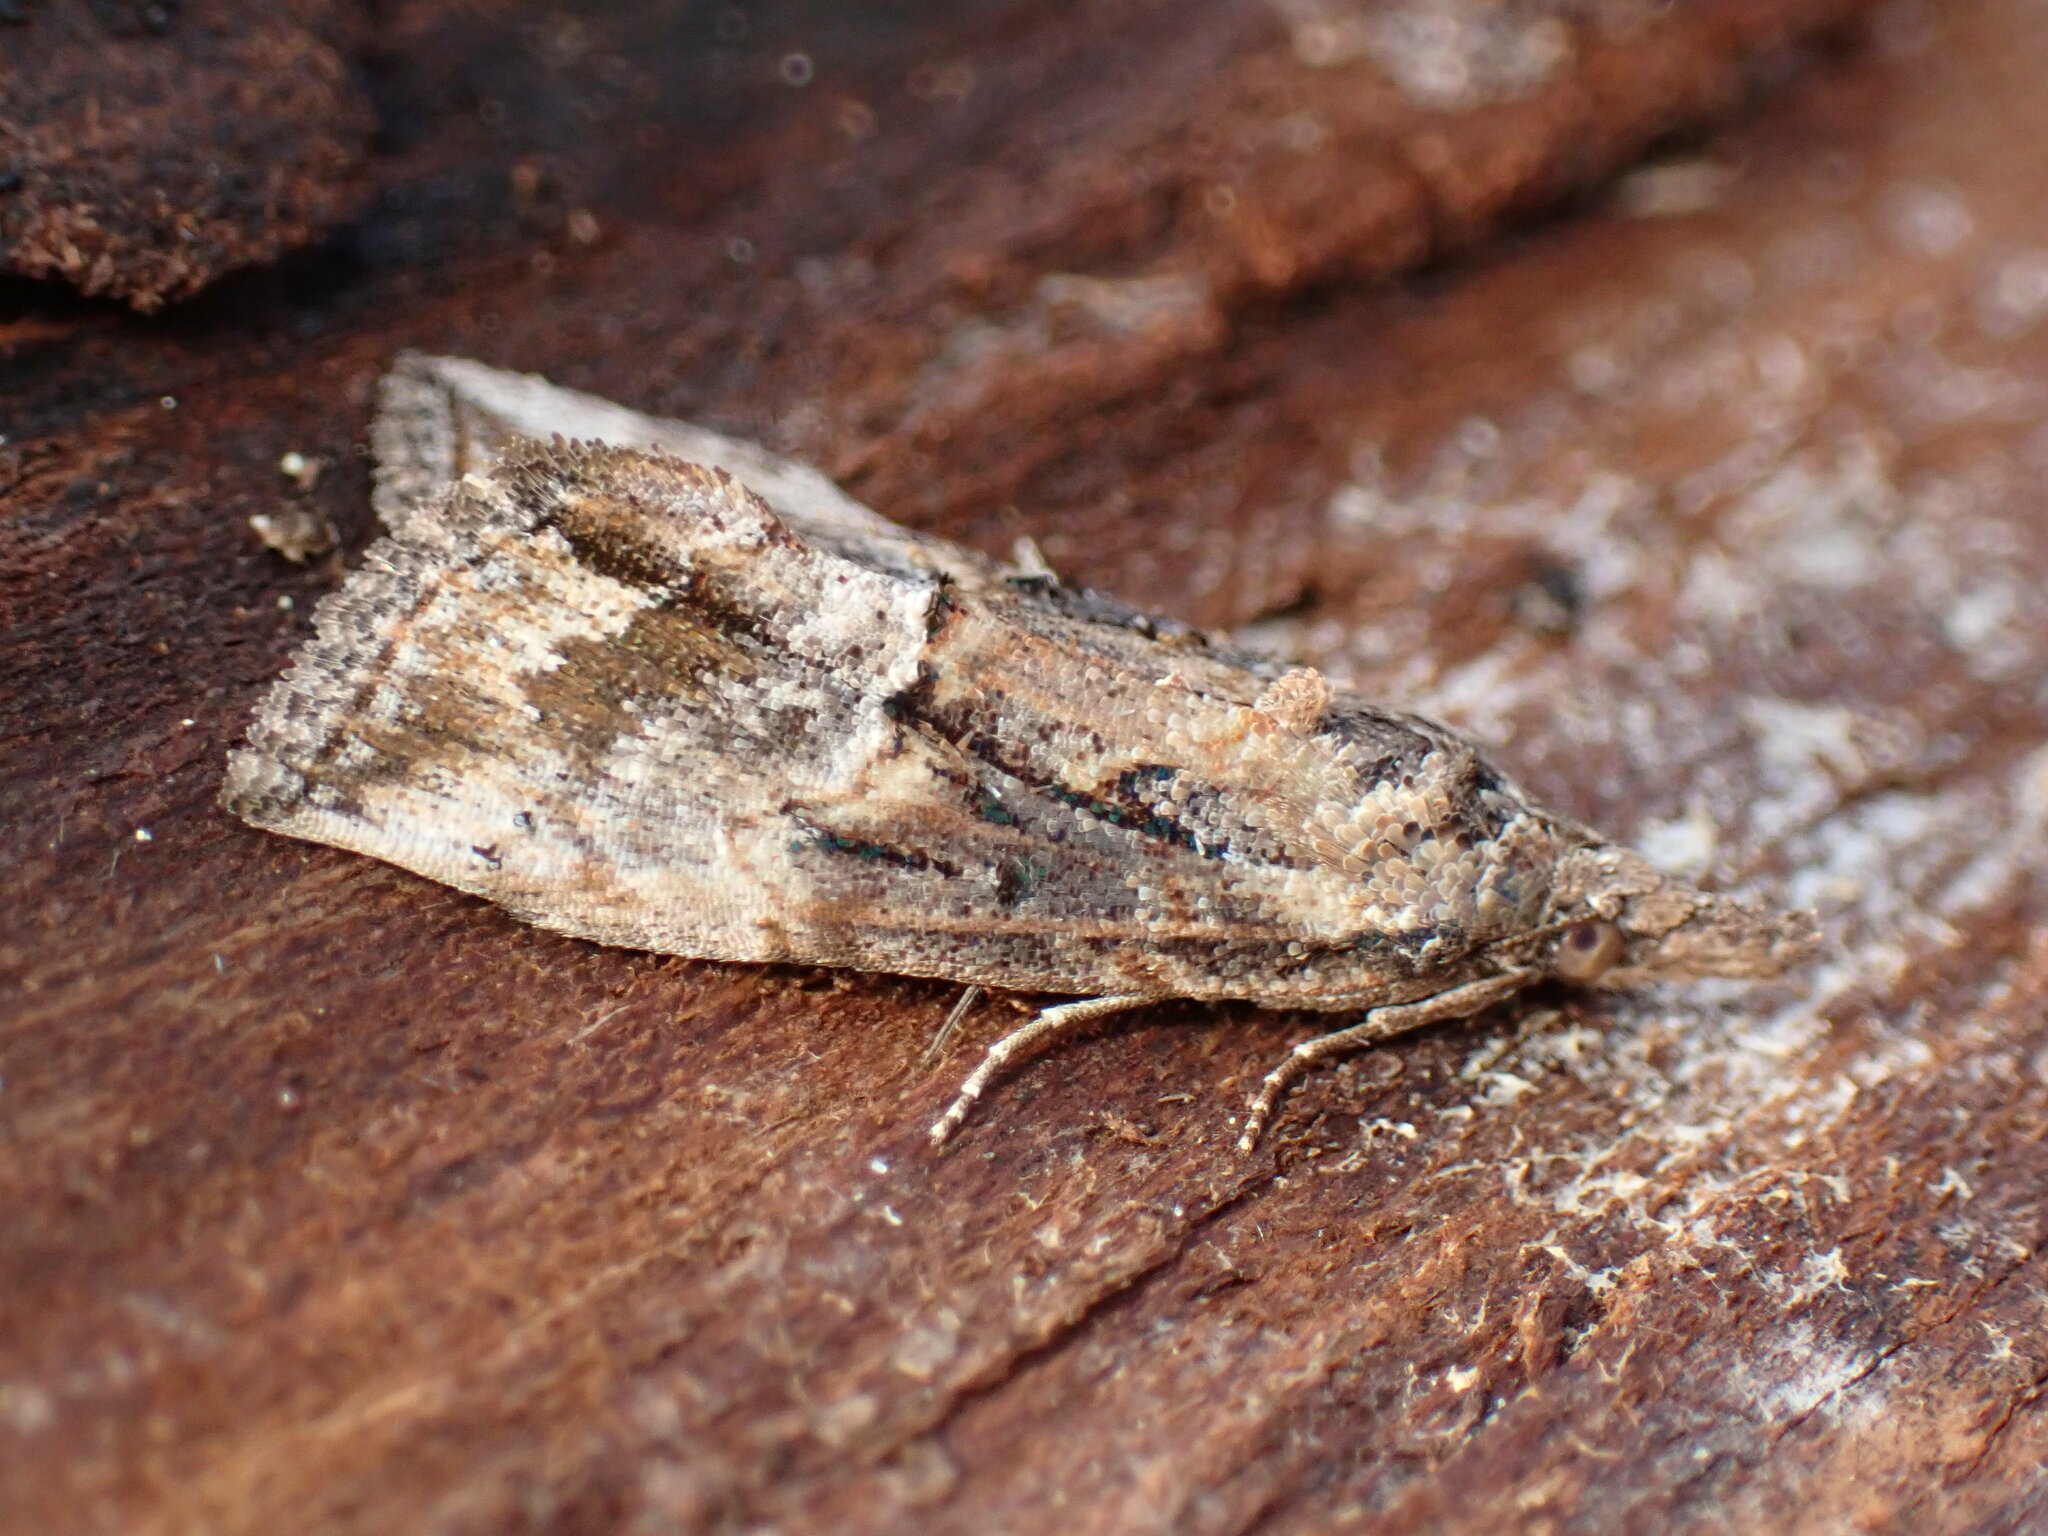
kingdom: Animalia
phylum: Arthropoda
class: Insecta
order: Lepidoptera
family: Erebidae
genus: Hypena
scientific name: Hypena scabra
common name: Green cloverworm
